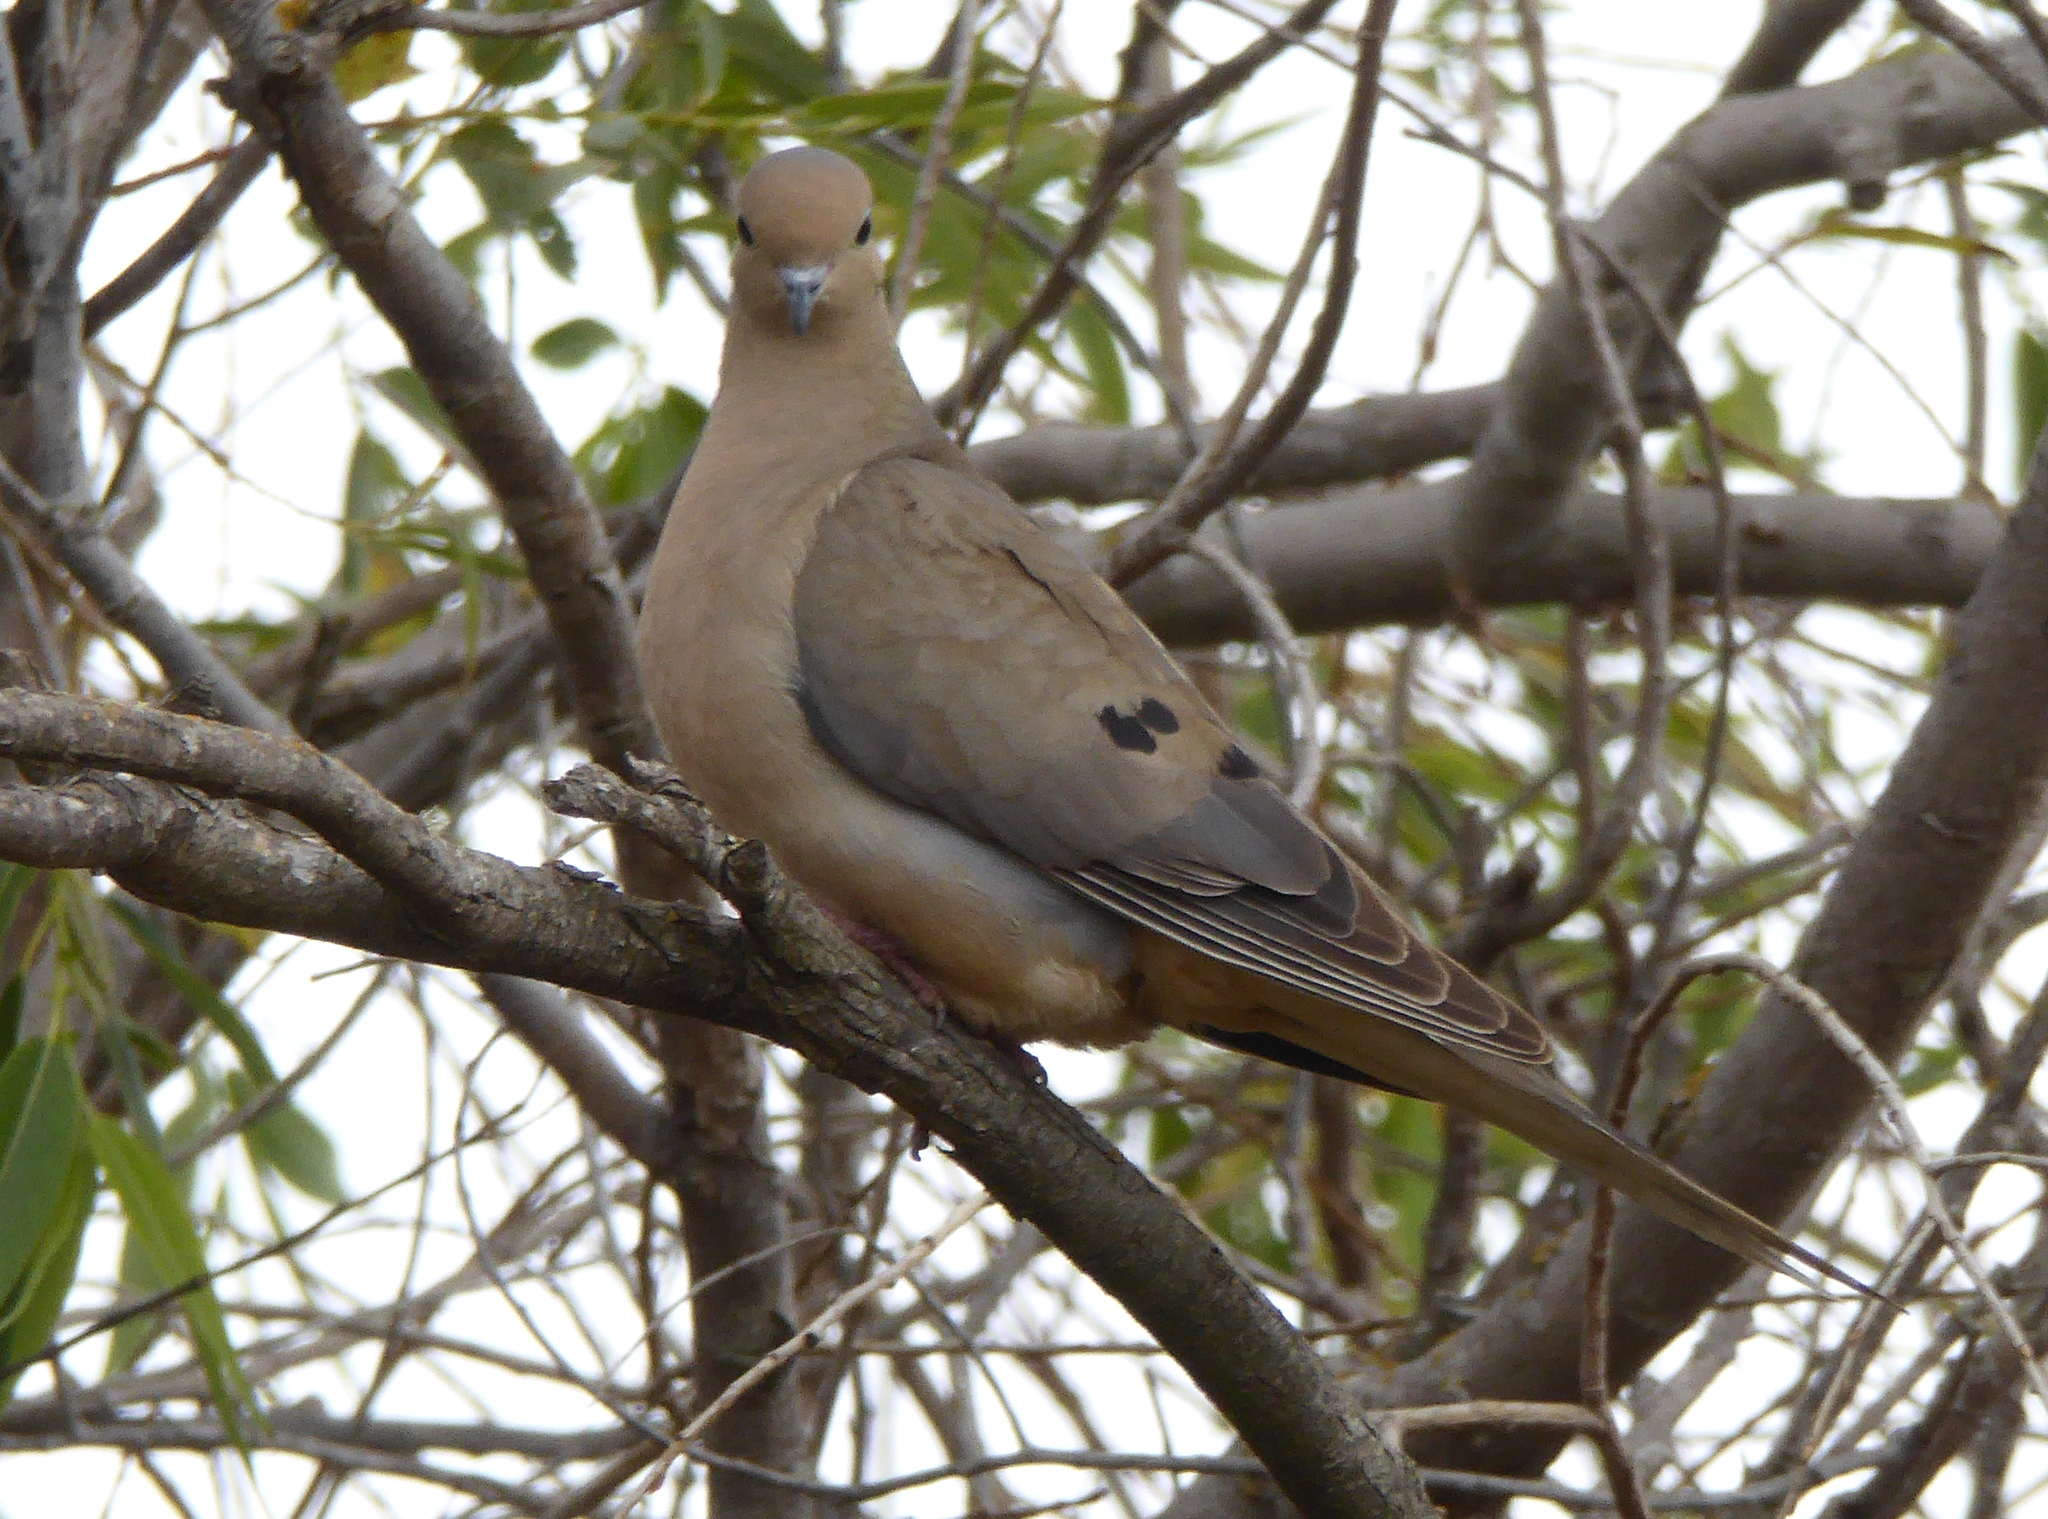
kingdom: Animalia
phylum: Chordata
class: Aves
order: Columbiformes
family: Columbidae
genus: Zenaida
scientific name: Zenaida macroura
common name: Mourning dove
